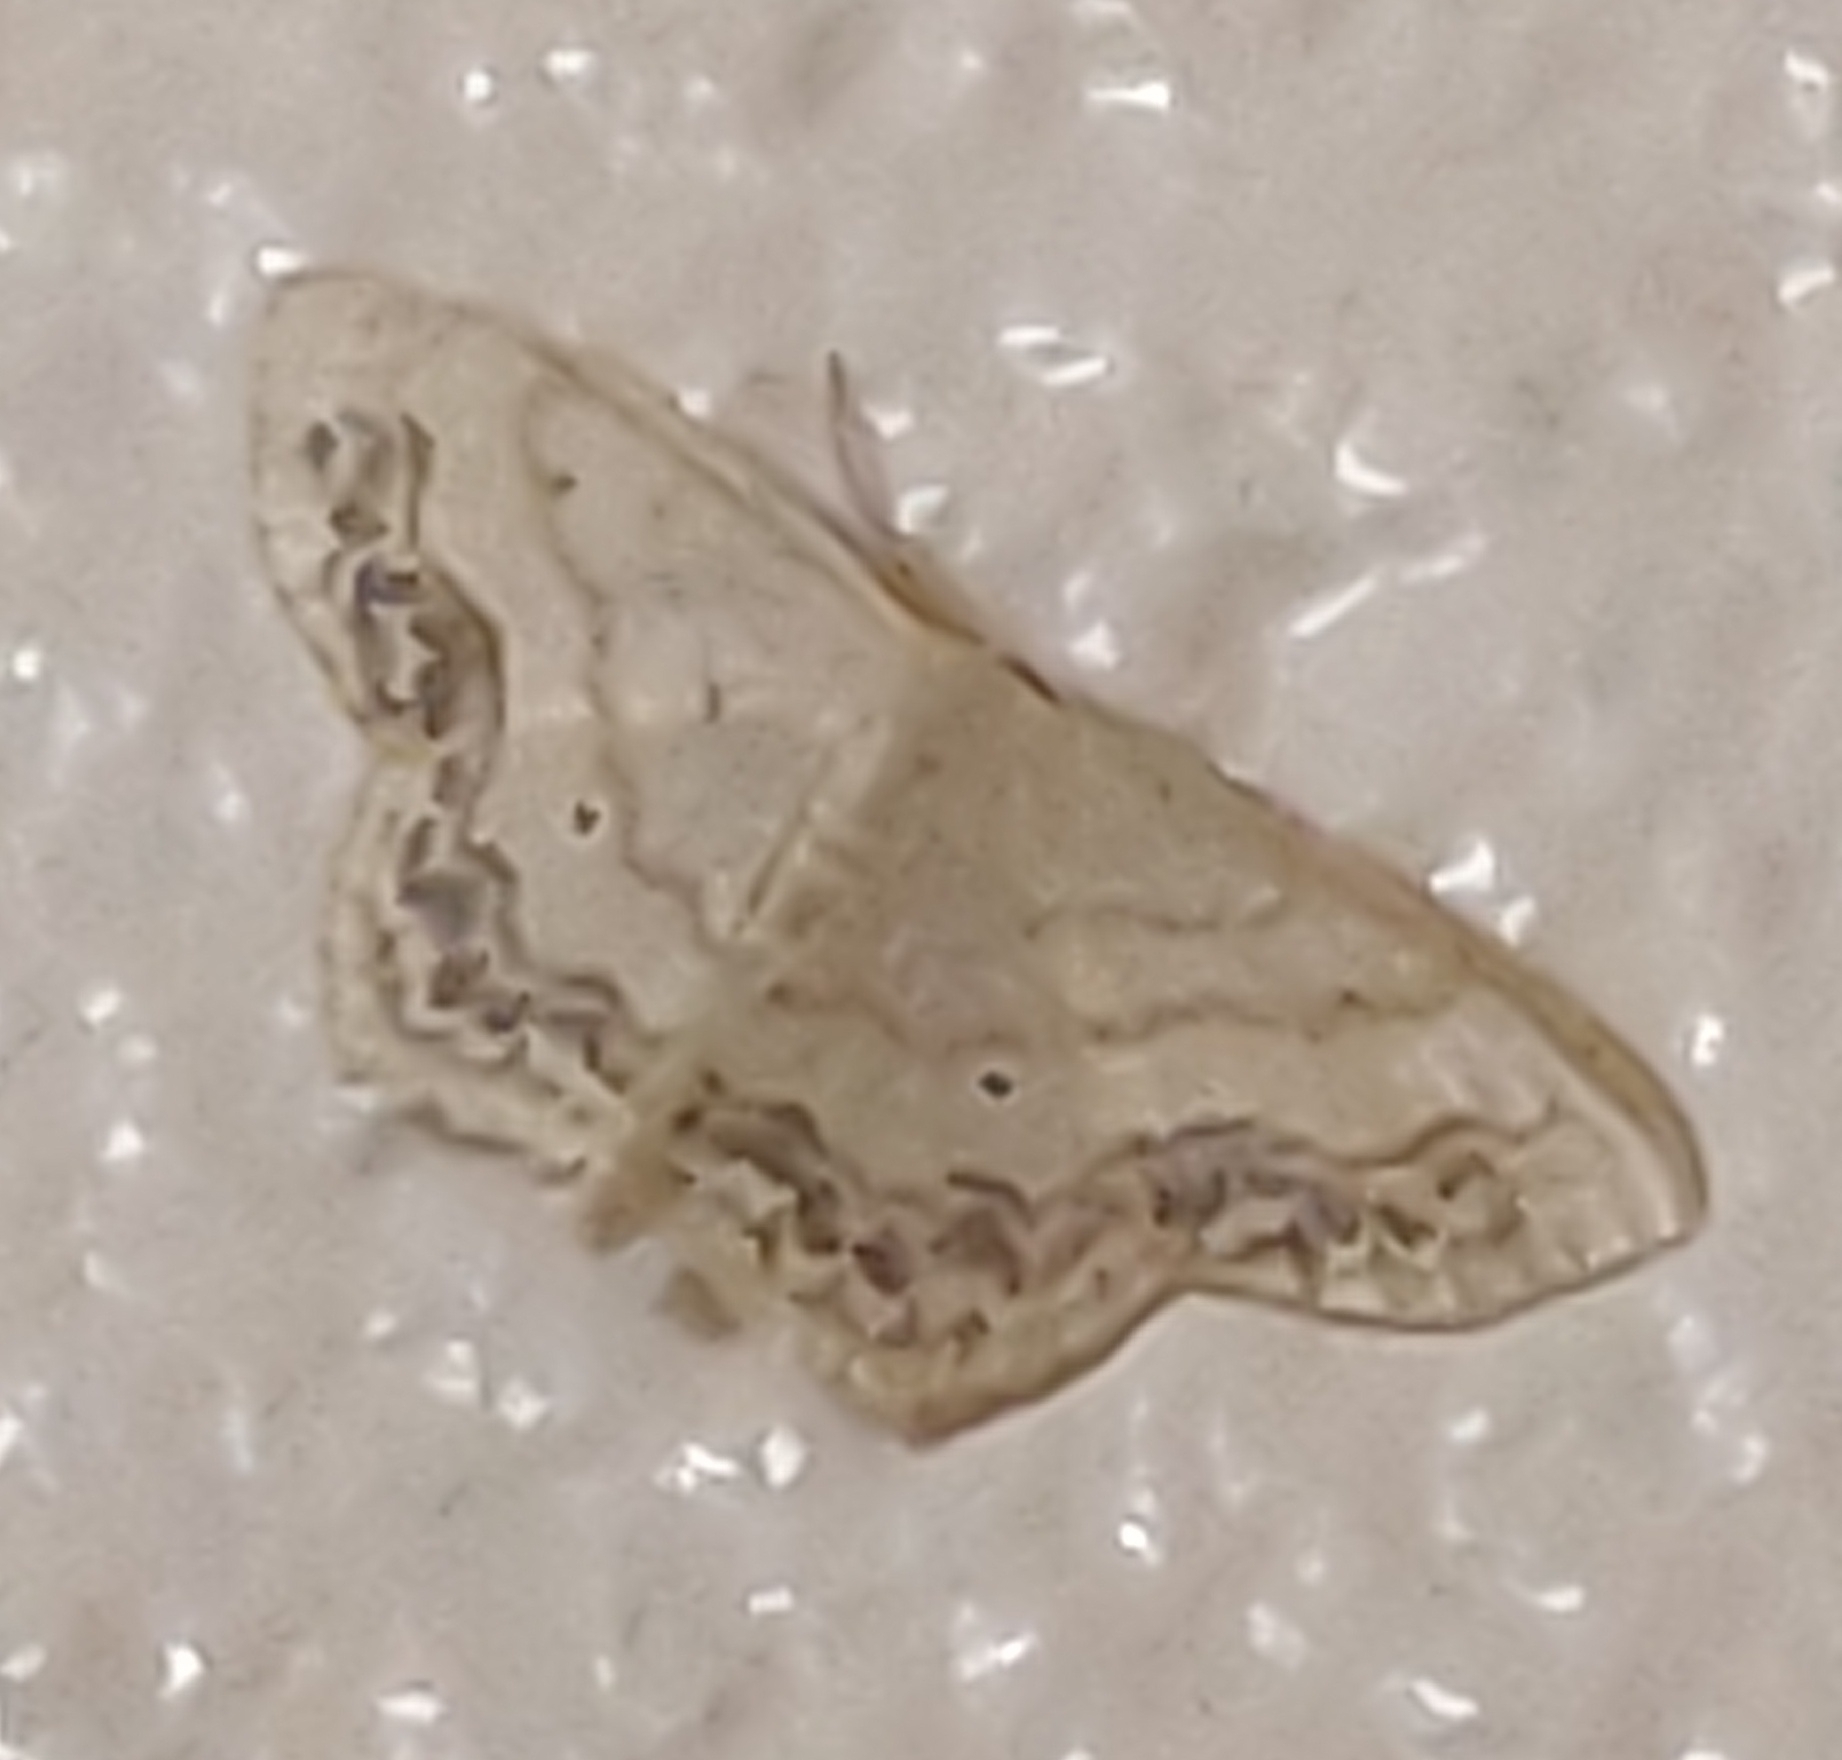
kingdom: Animalia
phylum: Arthropoda
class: Insecta
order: Lepidoptera
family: Geometridae
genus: Scopula
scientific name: Scopula limboundata
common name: Large lace border
